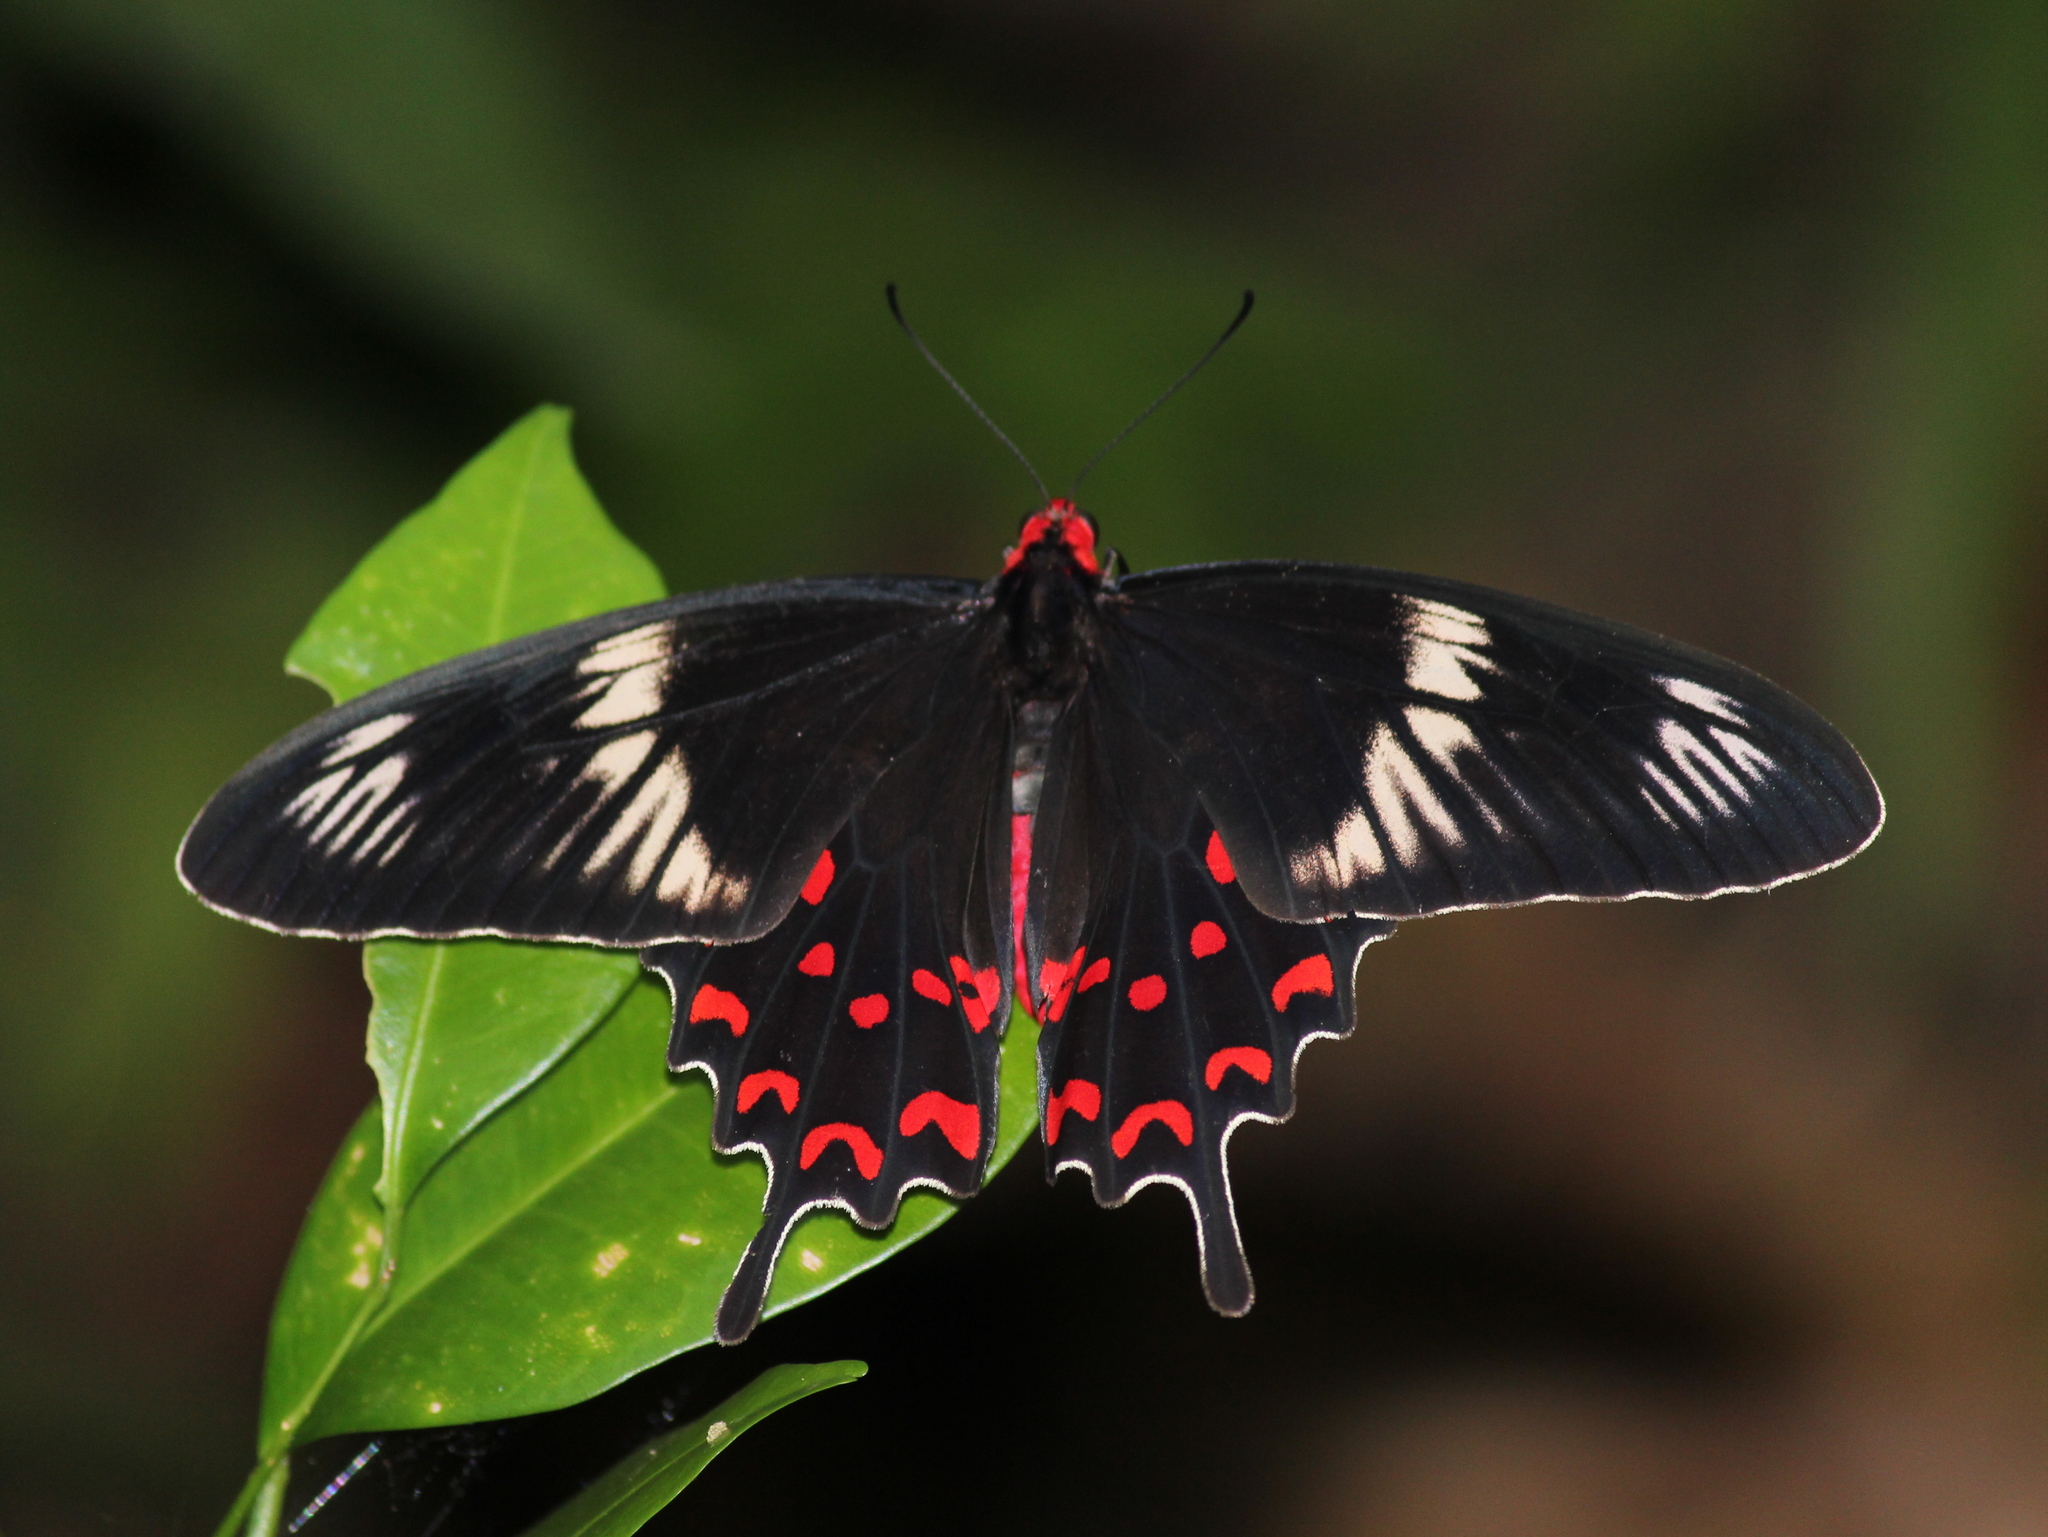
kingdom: Animalia
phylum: Arthropoda
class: Insecta
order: Lepidoptera
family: Papilionidae
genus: Pachliopta
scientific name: Pachliopta hector
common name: Crimson rose
